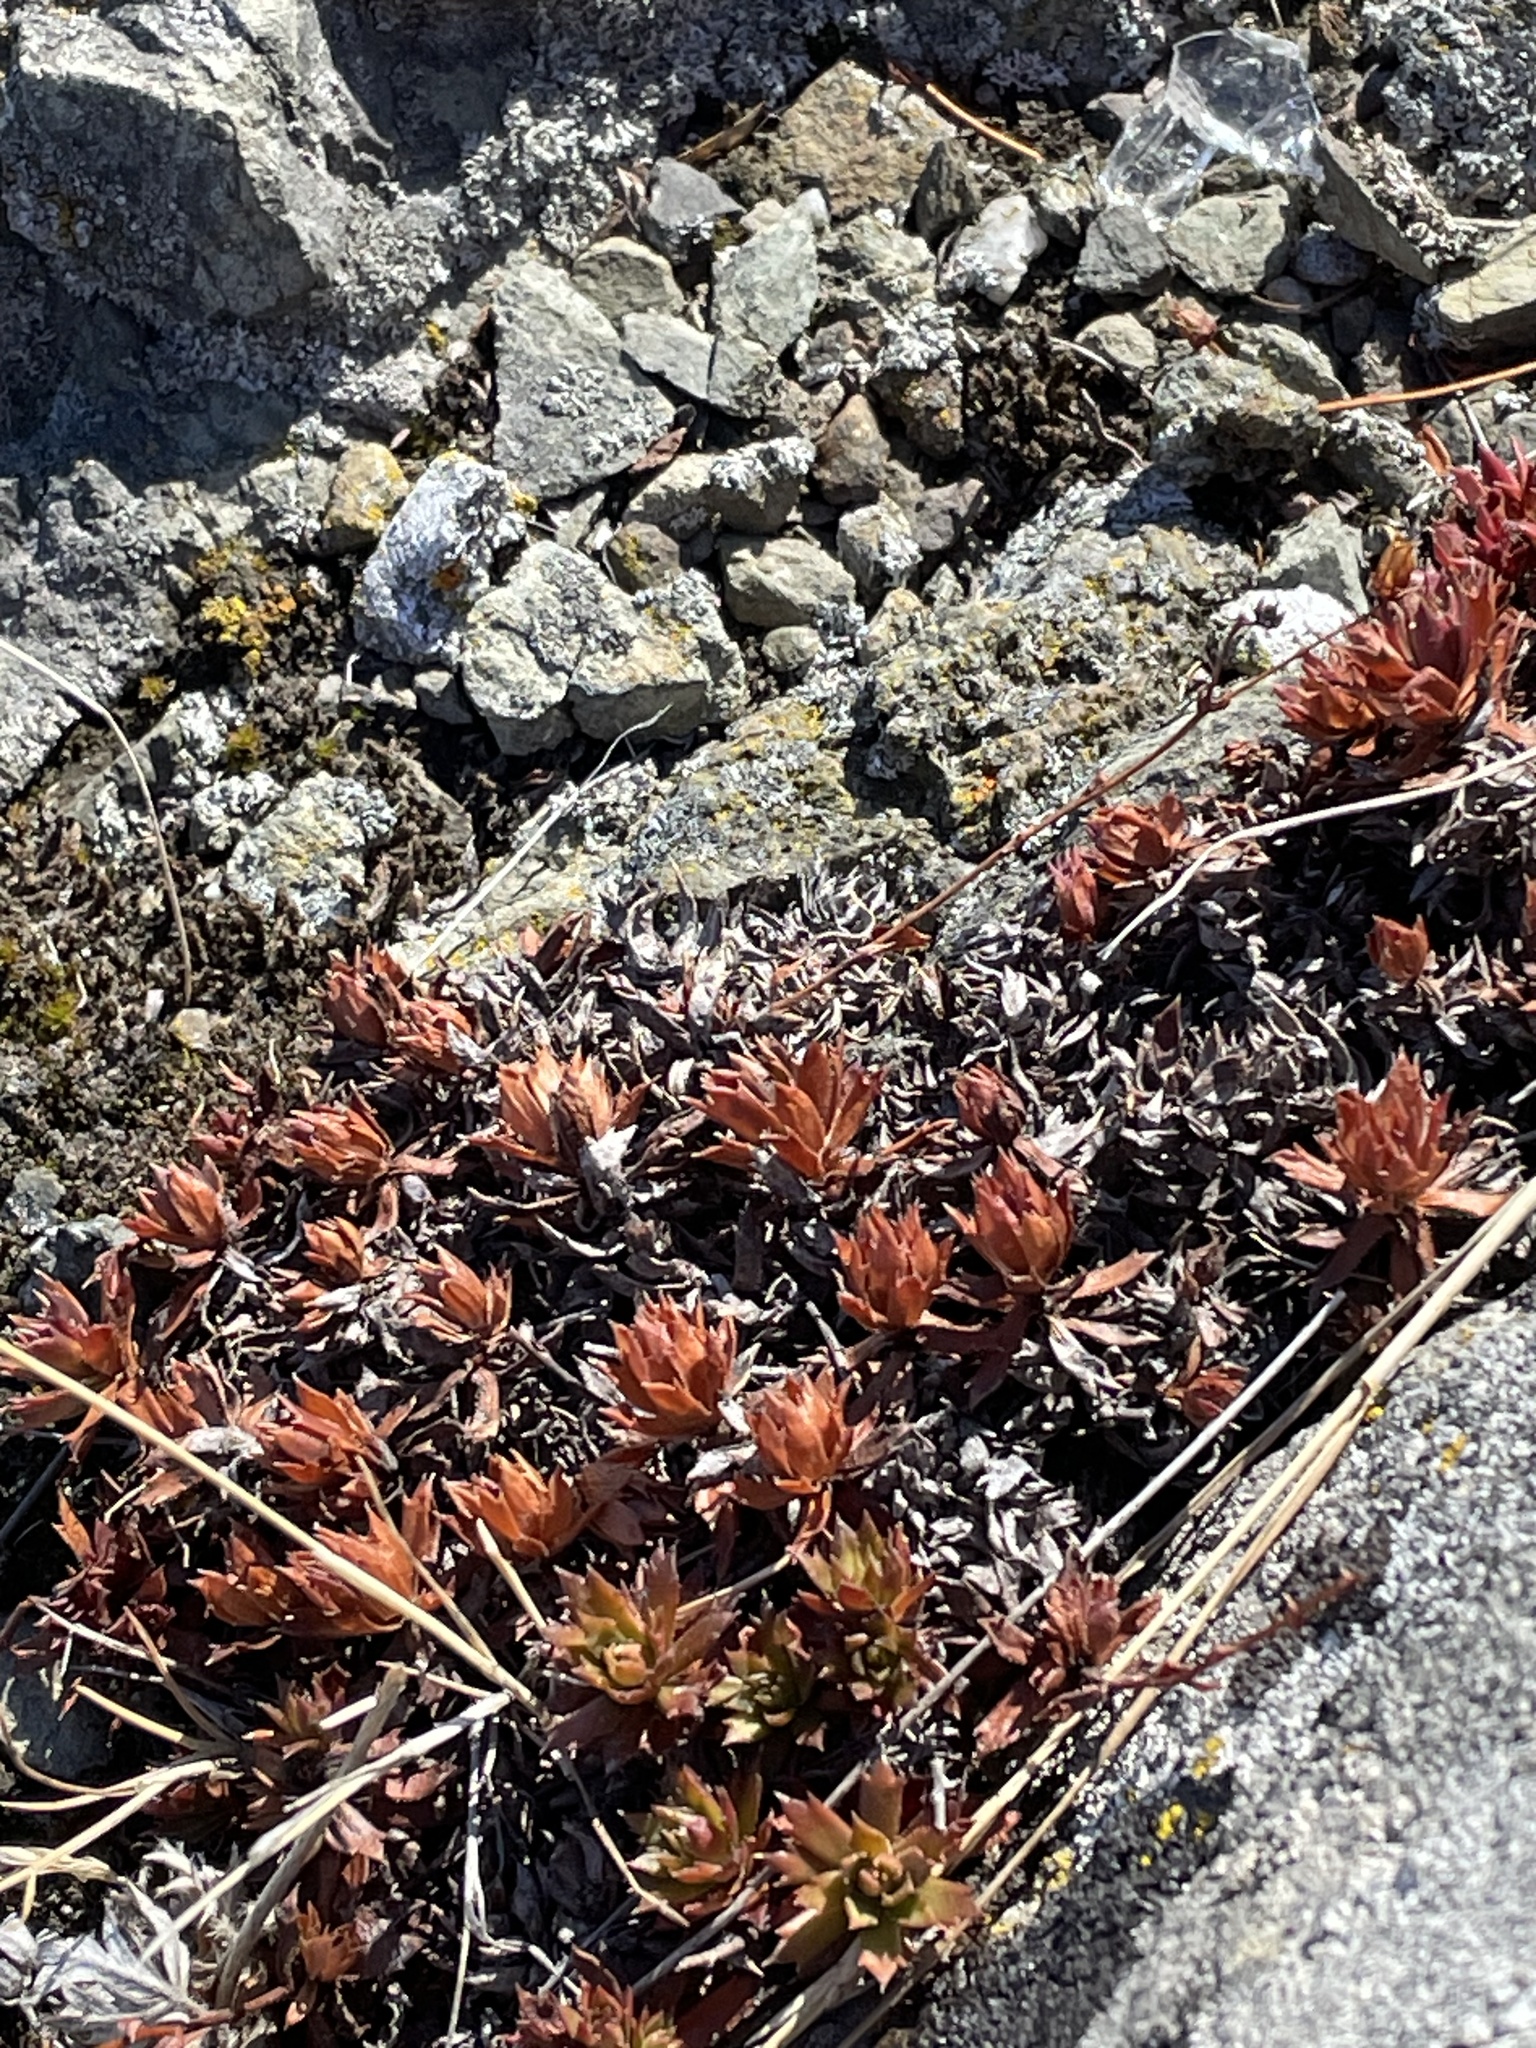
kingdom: Plantae
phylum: Tracheophyta
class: Magnoliopsida
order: Saxifragales
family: Saxifragaceae
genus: Saxifraga
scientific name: Saxifraga tricuspidata
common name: Prickly saxifrage
